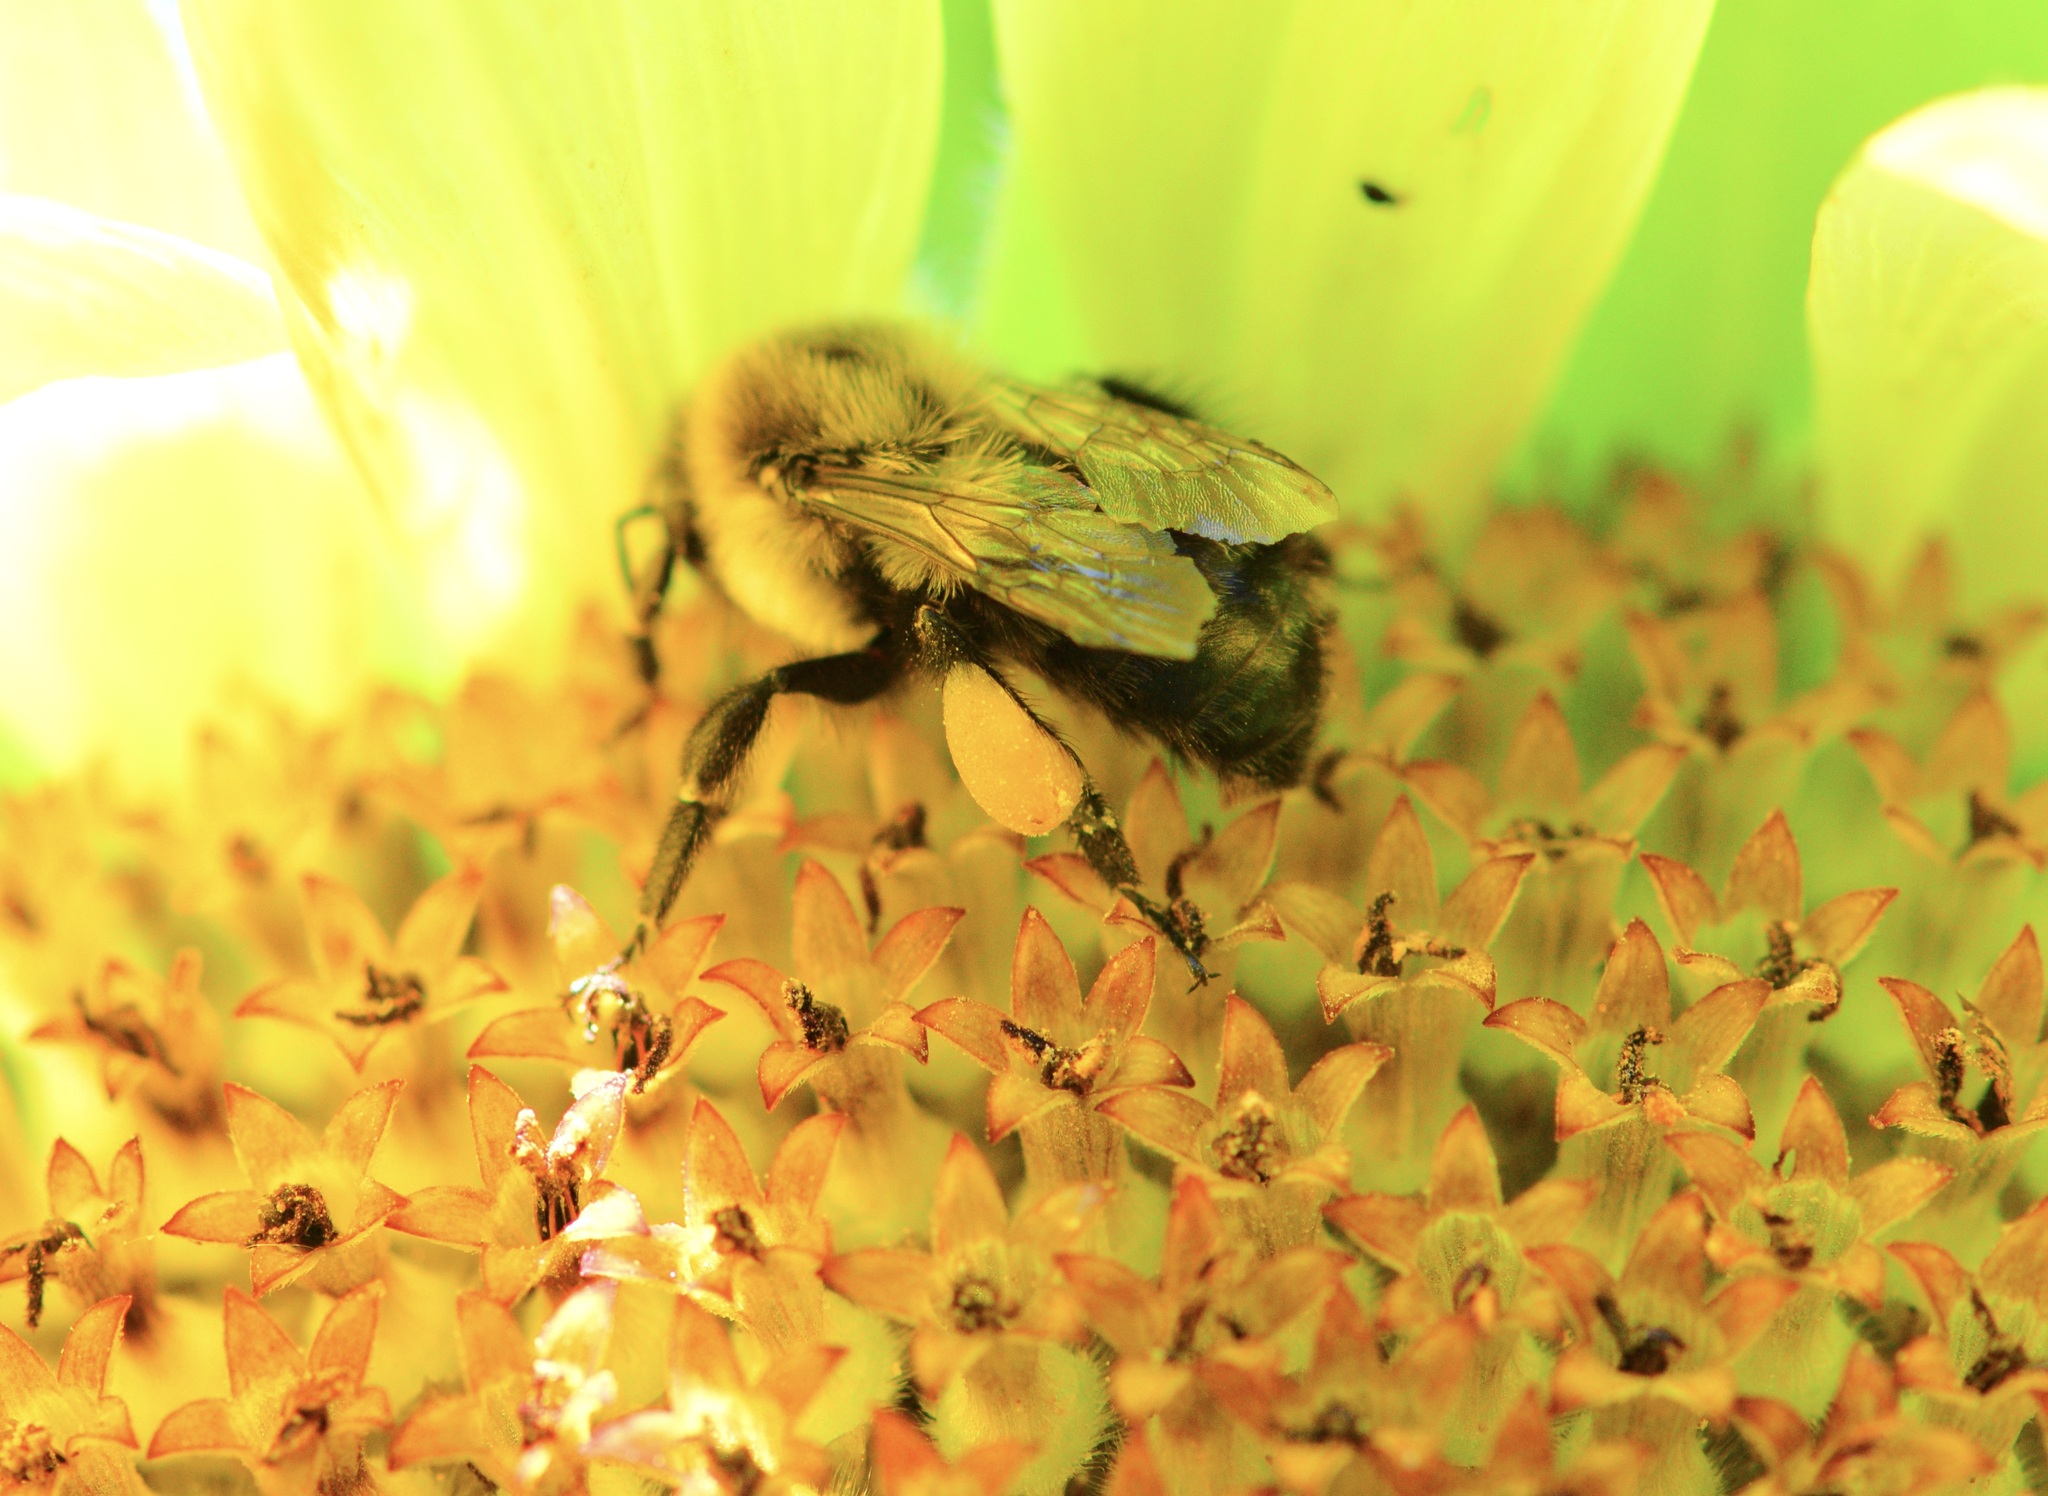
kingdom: Animalia
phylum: Arthropoda
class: Insecta
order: Hymenoptera
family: Apidae
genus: Bombus
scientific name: Bombus impatiens
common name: Common eastern bumble bee
